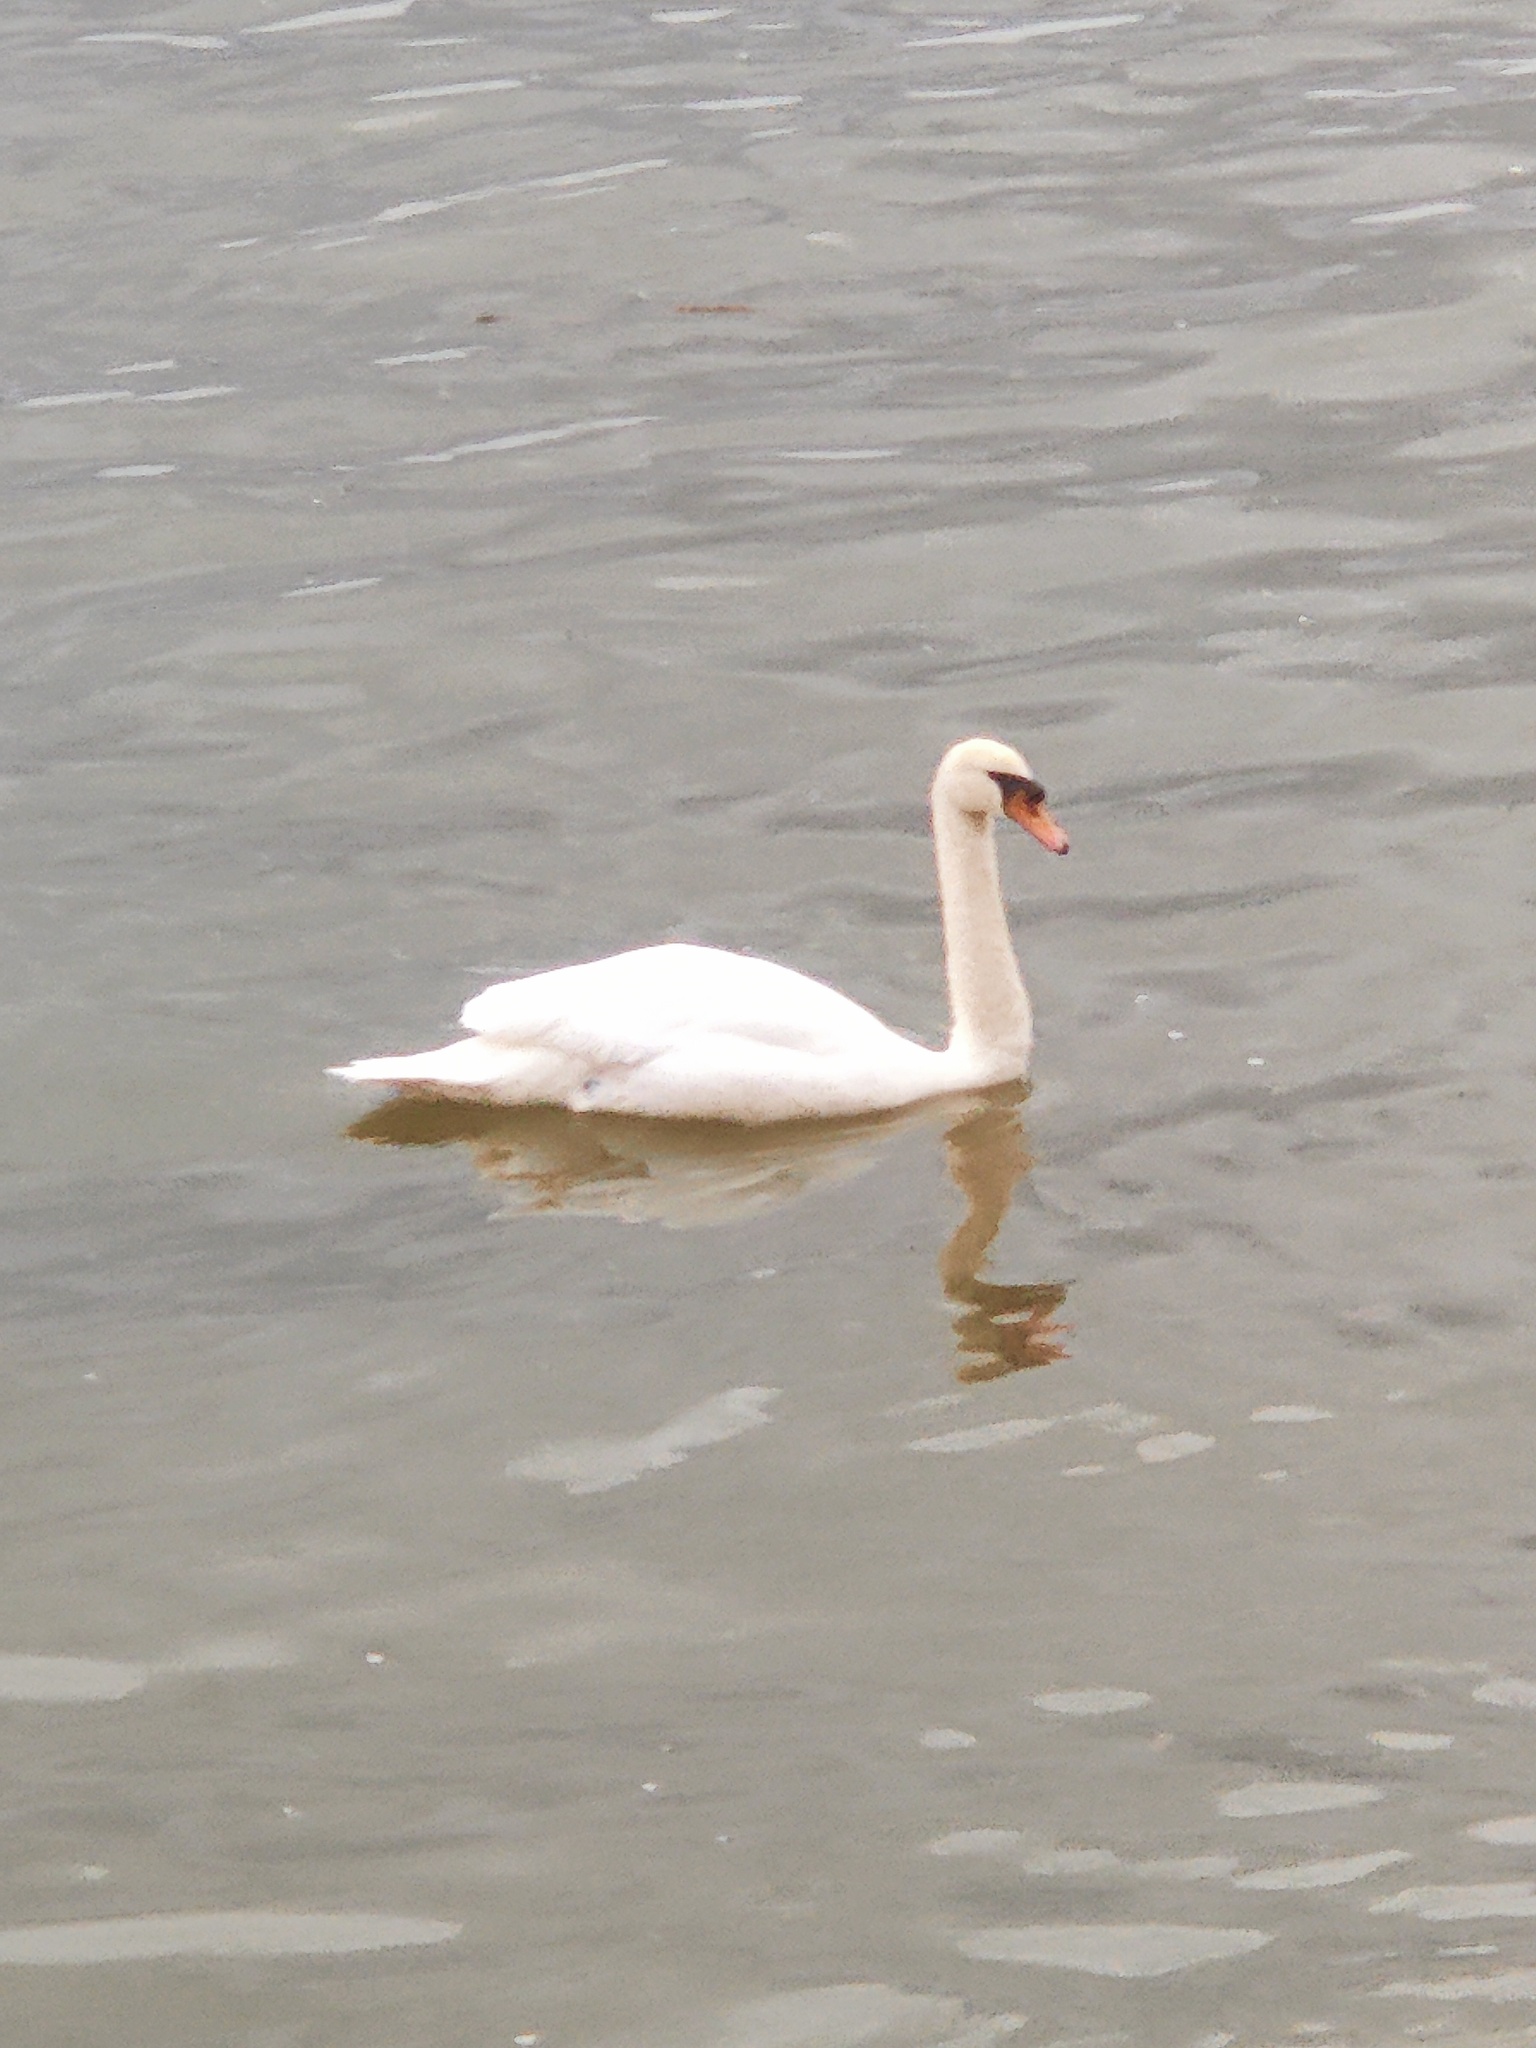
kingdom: Animalia
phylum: Chordata
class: Aves
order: Anseriformes
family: Anatidae
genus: Cygnus
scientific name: Cygnus olor
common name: Mute swan
